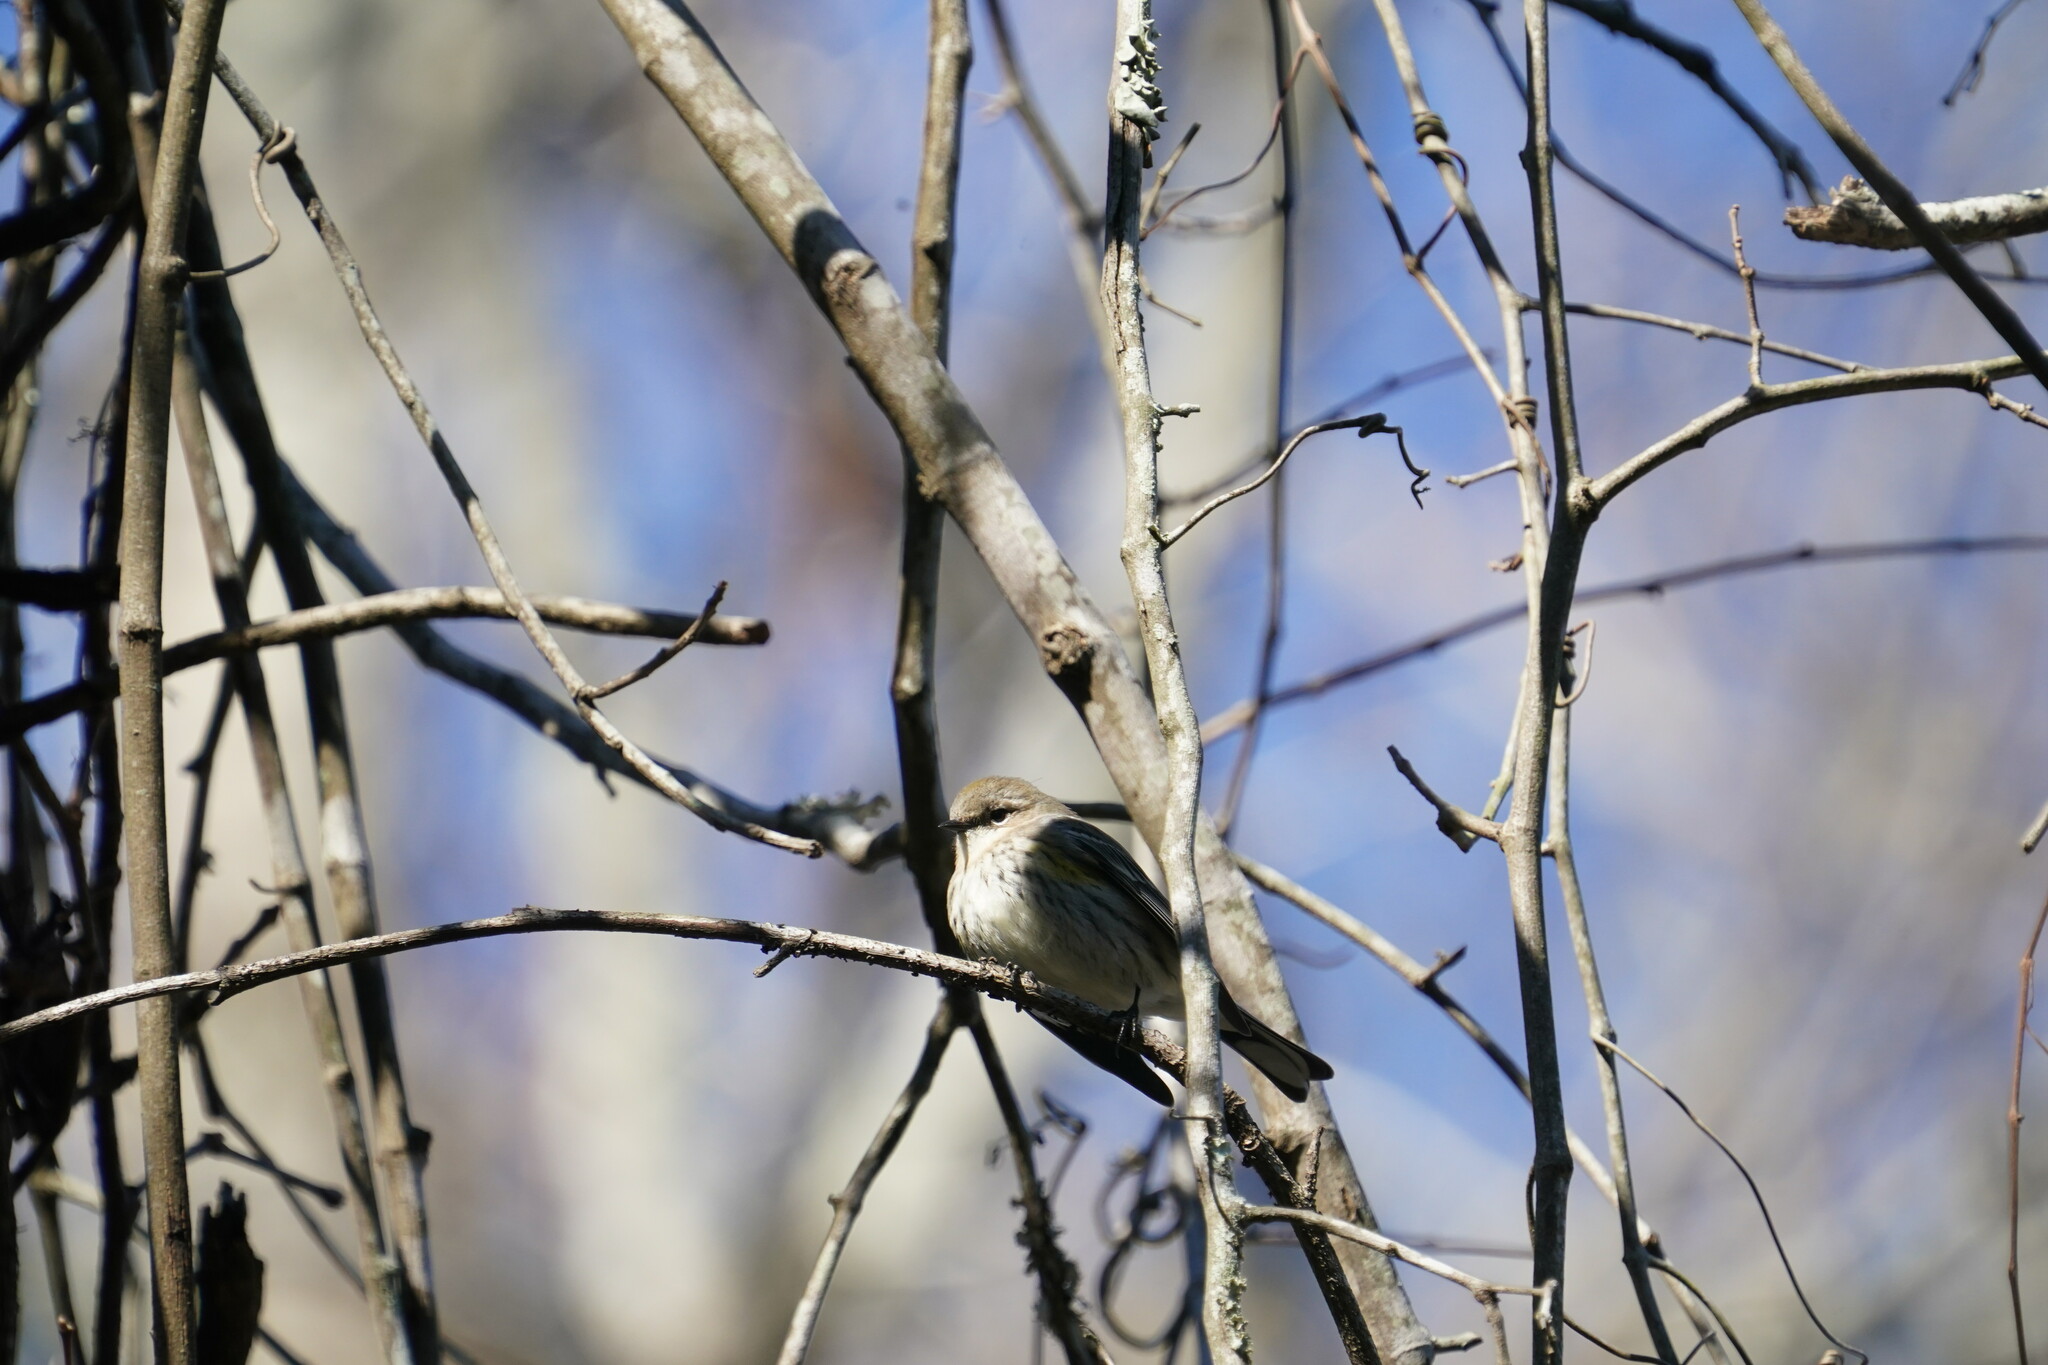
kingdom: Animalia
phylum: Chordata
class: Aves
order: Passeriformes
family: Parulidae
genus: Setophaga
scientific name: Setophaga coronata
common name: Myrtle warbler
